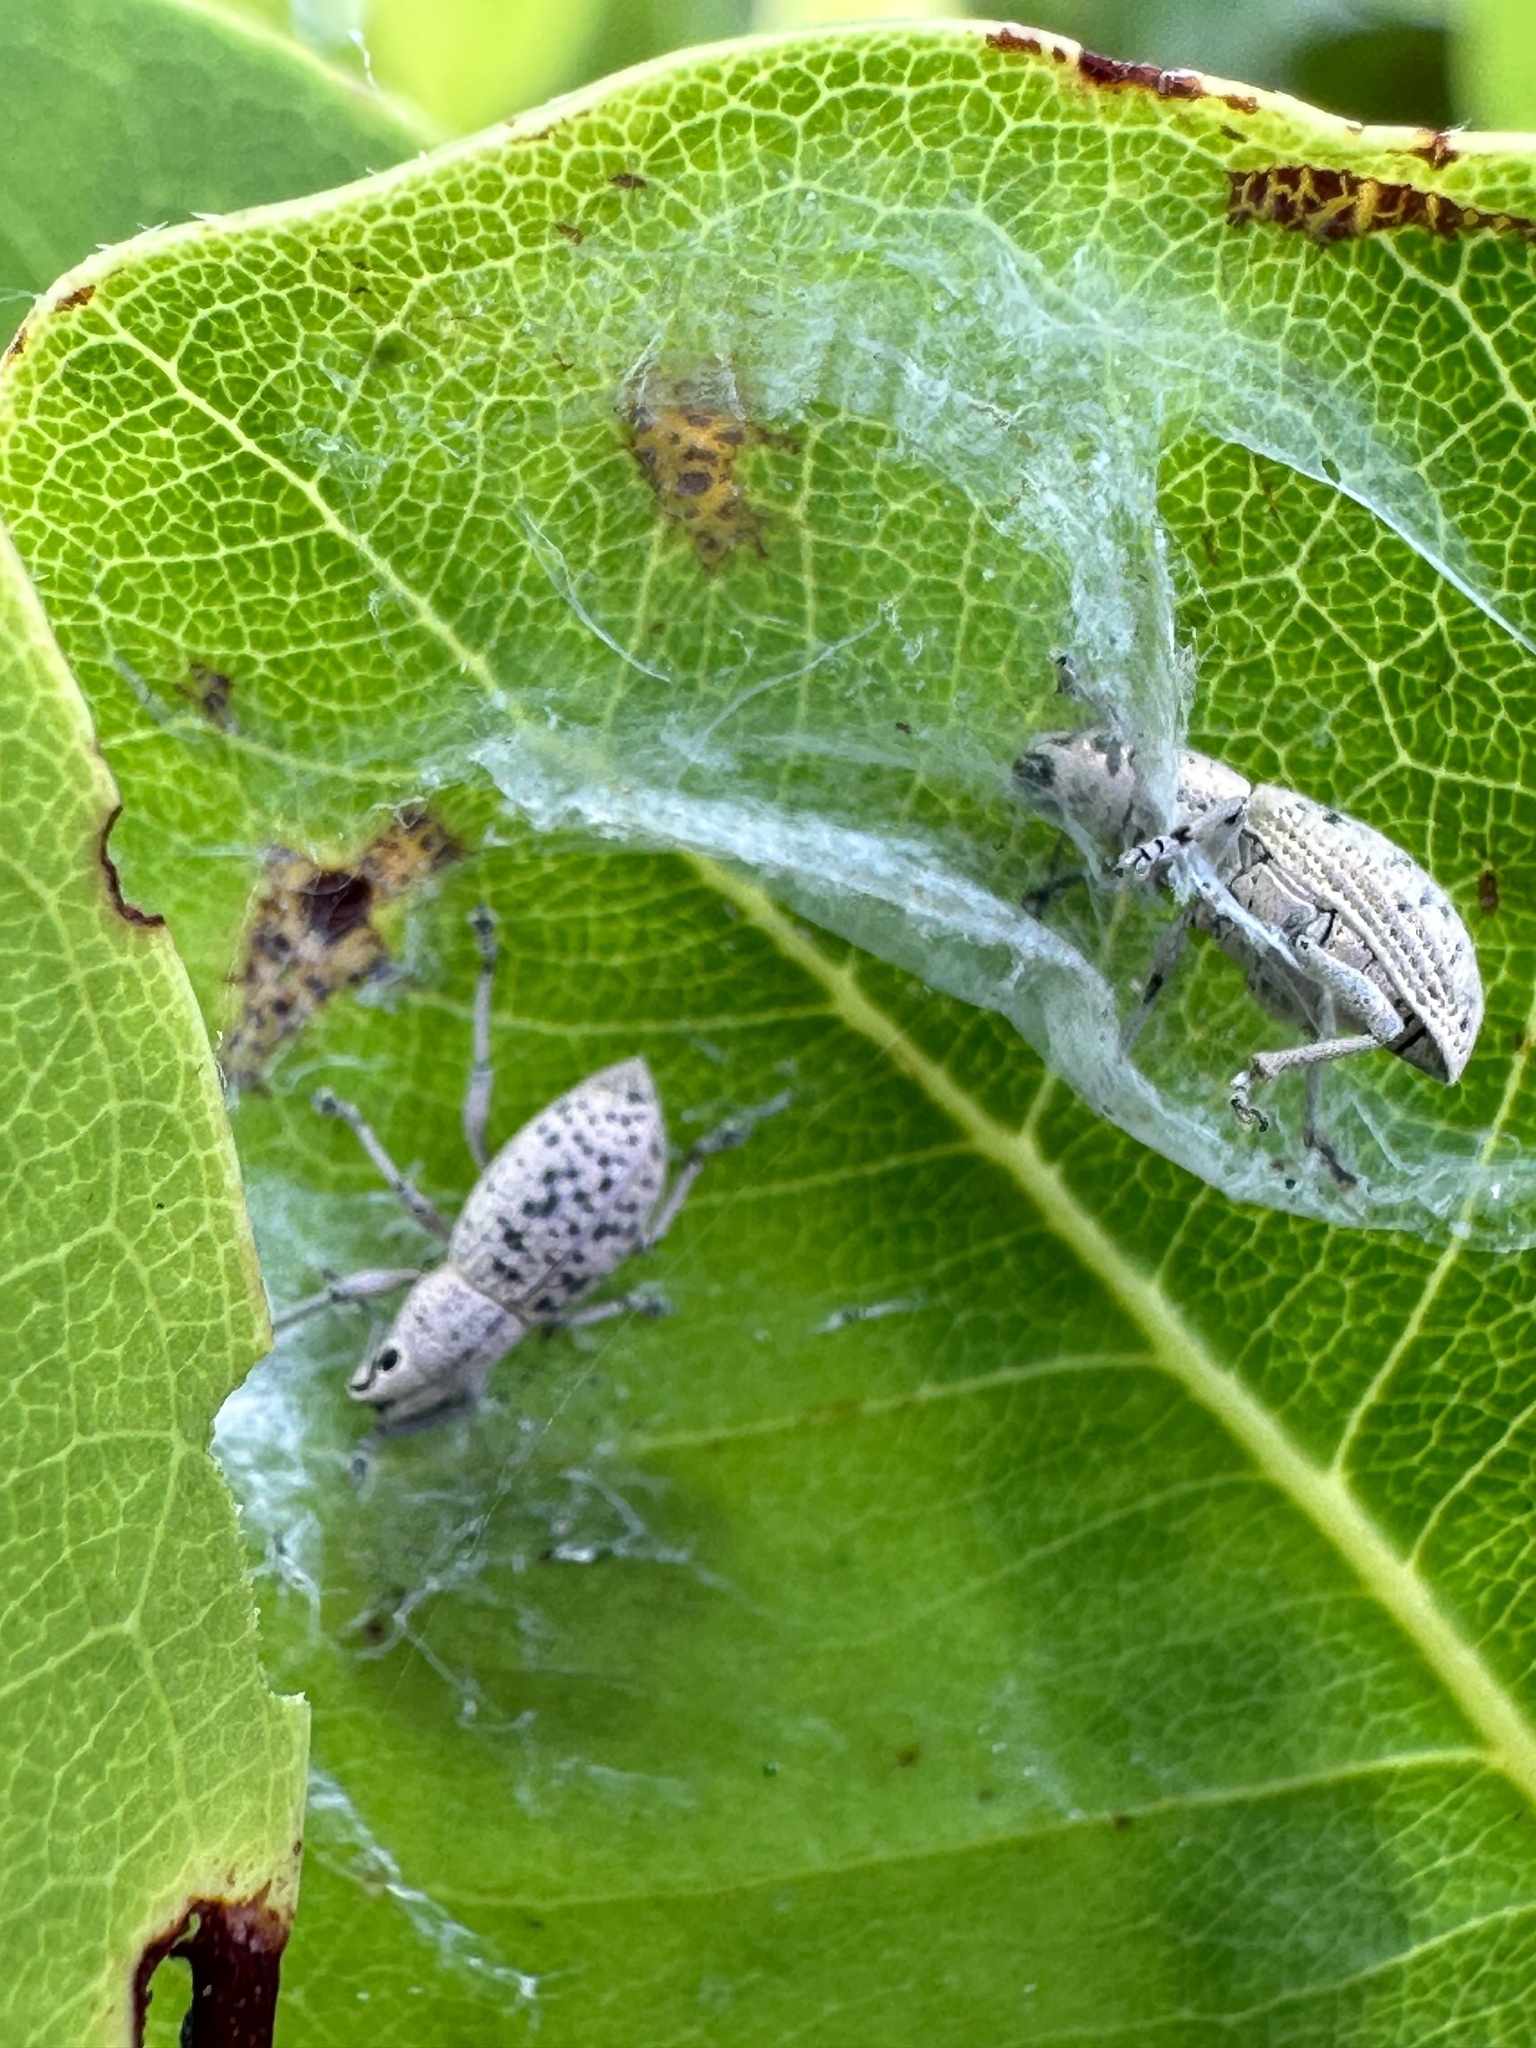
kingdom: Animalia
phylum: Arthropoda
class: Insecta
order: Coleoptera
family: Curculionidae
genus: Artipus
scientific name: Artipus floridanus
